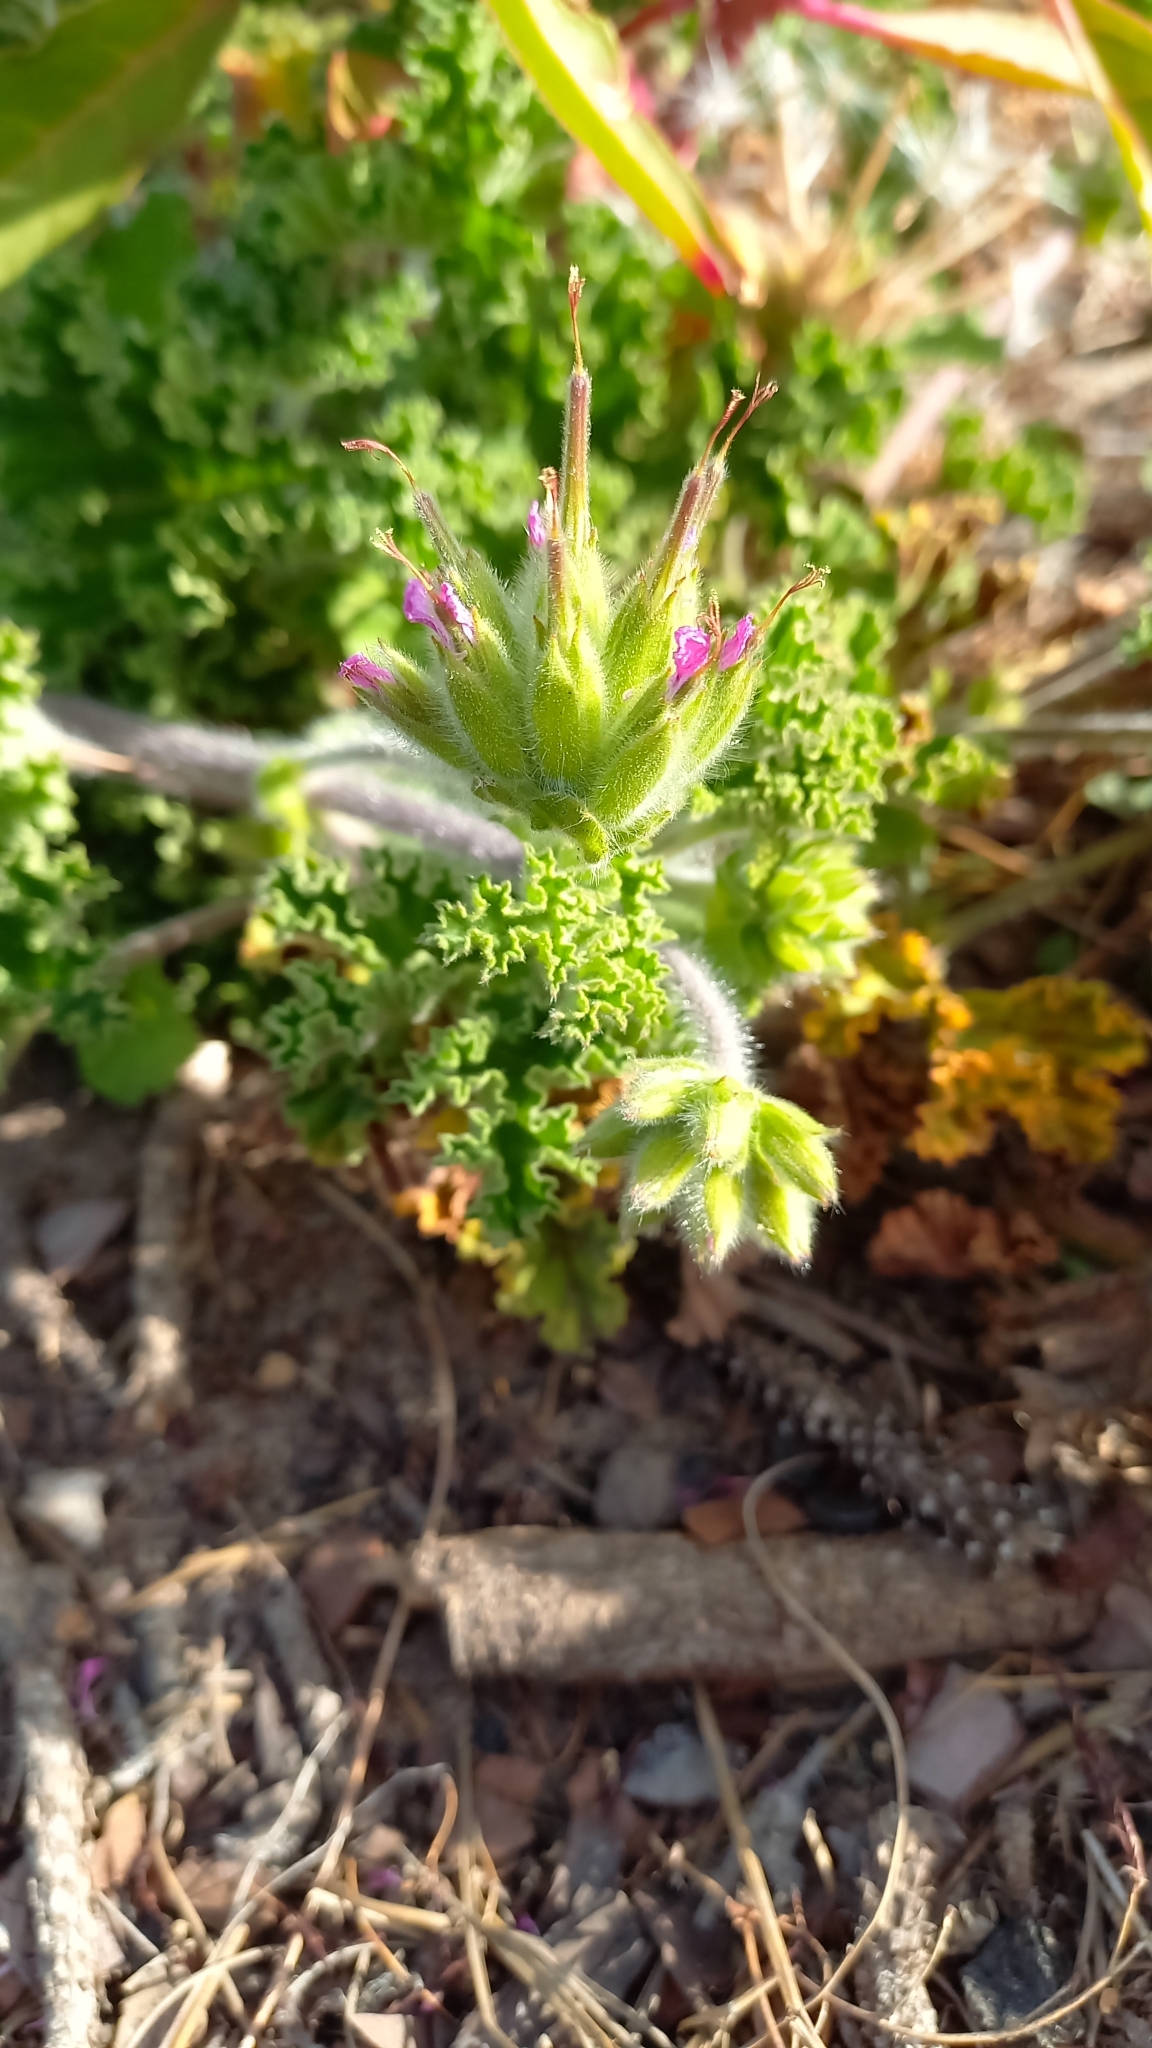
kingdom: Plantae
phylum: Tracheophyta
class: Magnoliopsida
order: Geraniales
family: Geraniaceae
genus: Pelargonium
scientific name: Pelargonium capitatum
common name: Rose scented geranium
